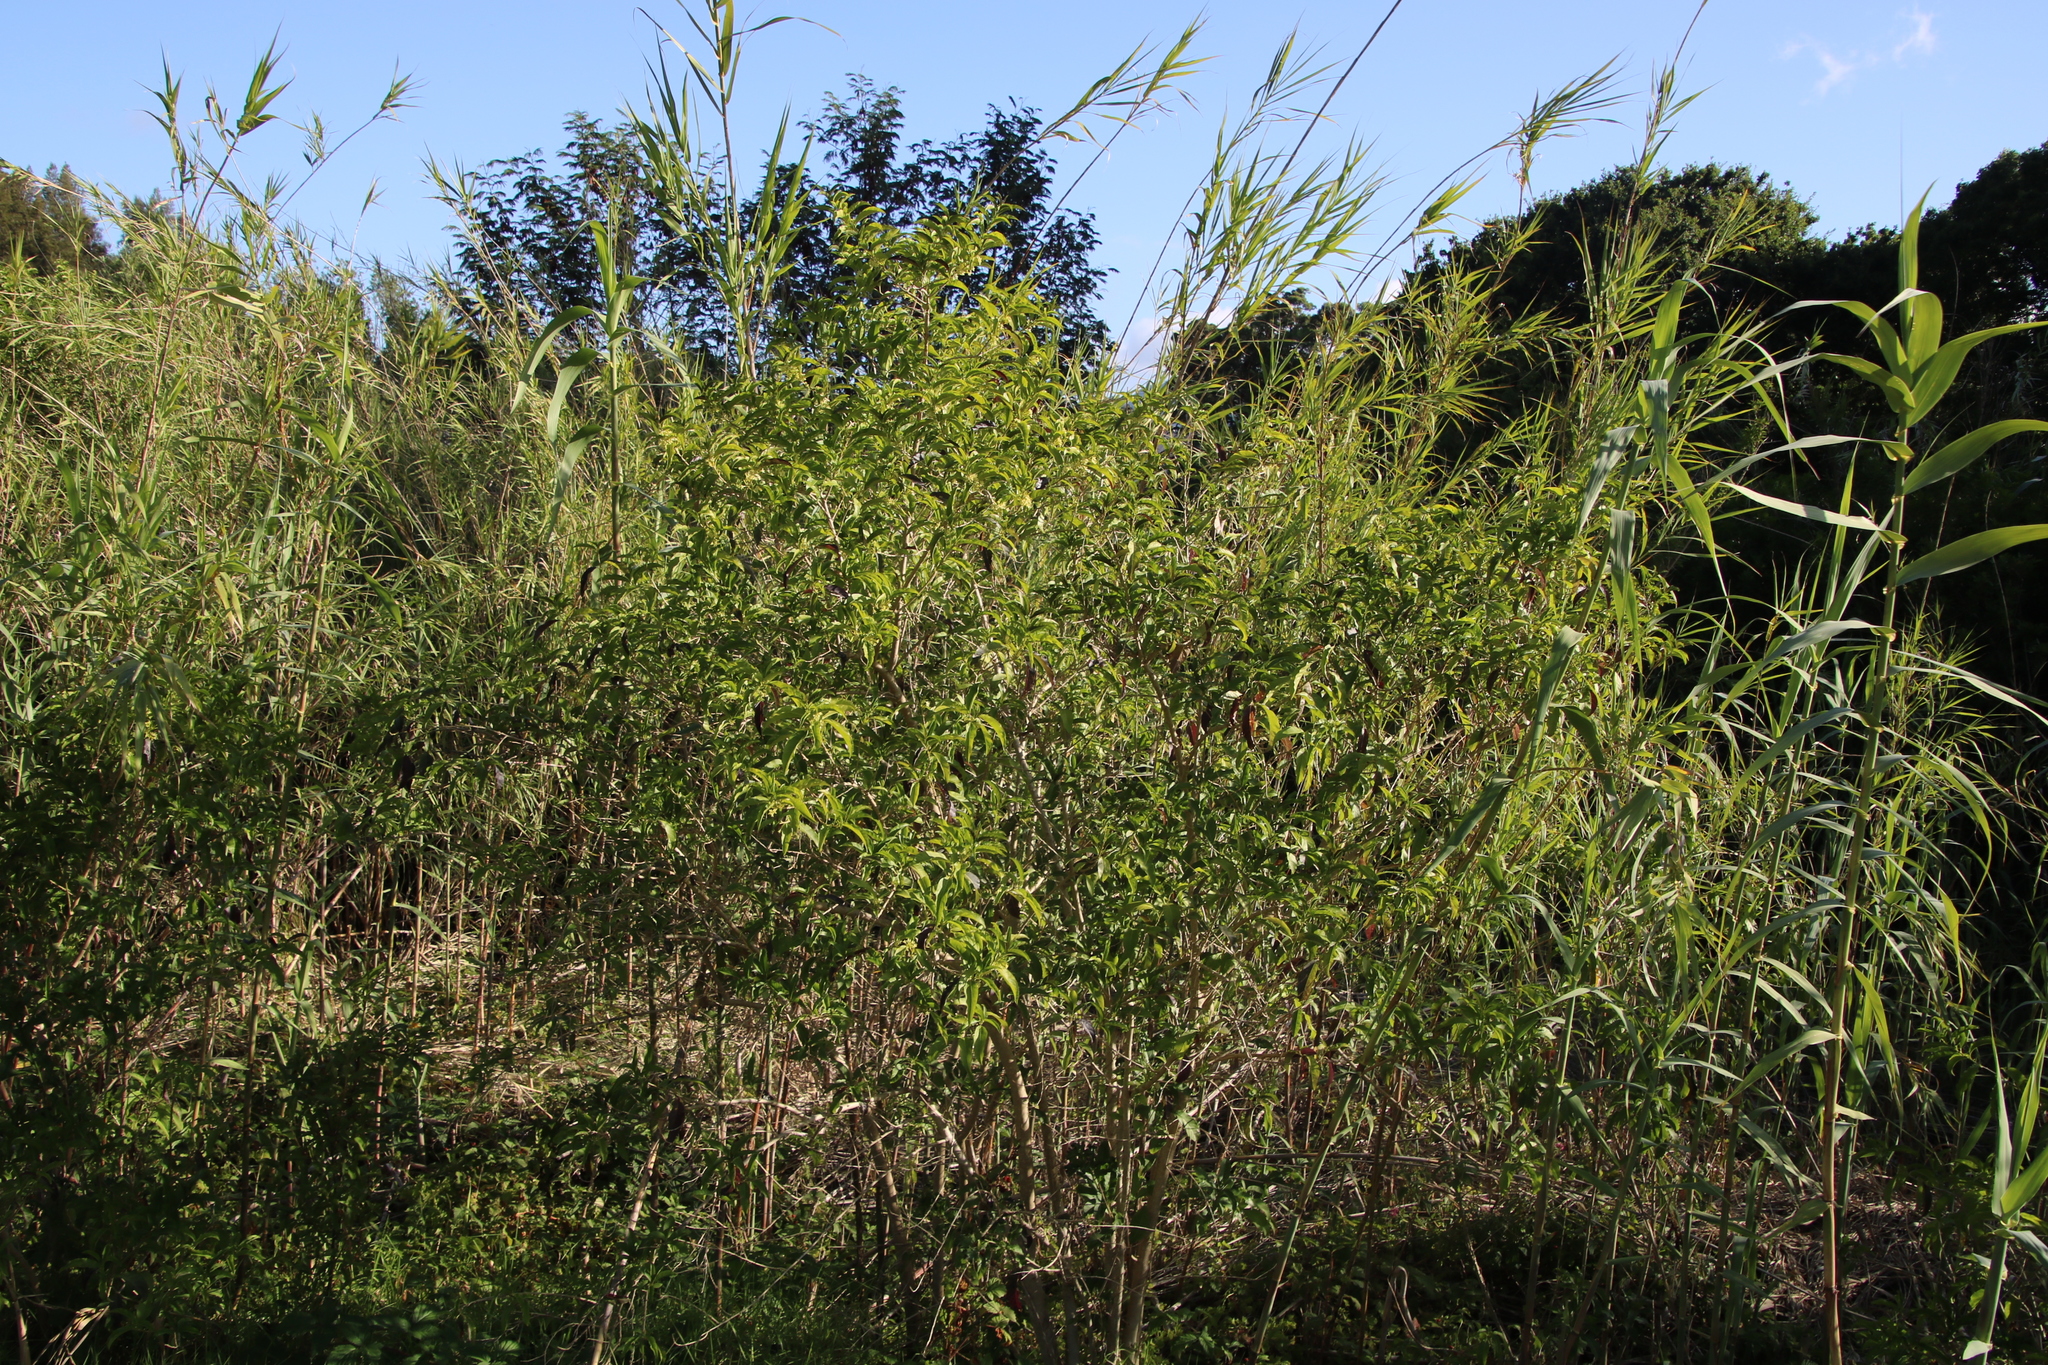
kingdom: Plantae
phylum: Tracheophyta
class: Magnoliopsida
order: Solanales
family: Solanaceae
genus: Cestrum
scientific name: Cestrum laevigatum
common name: Inkberry
